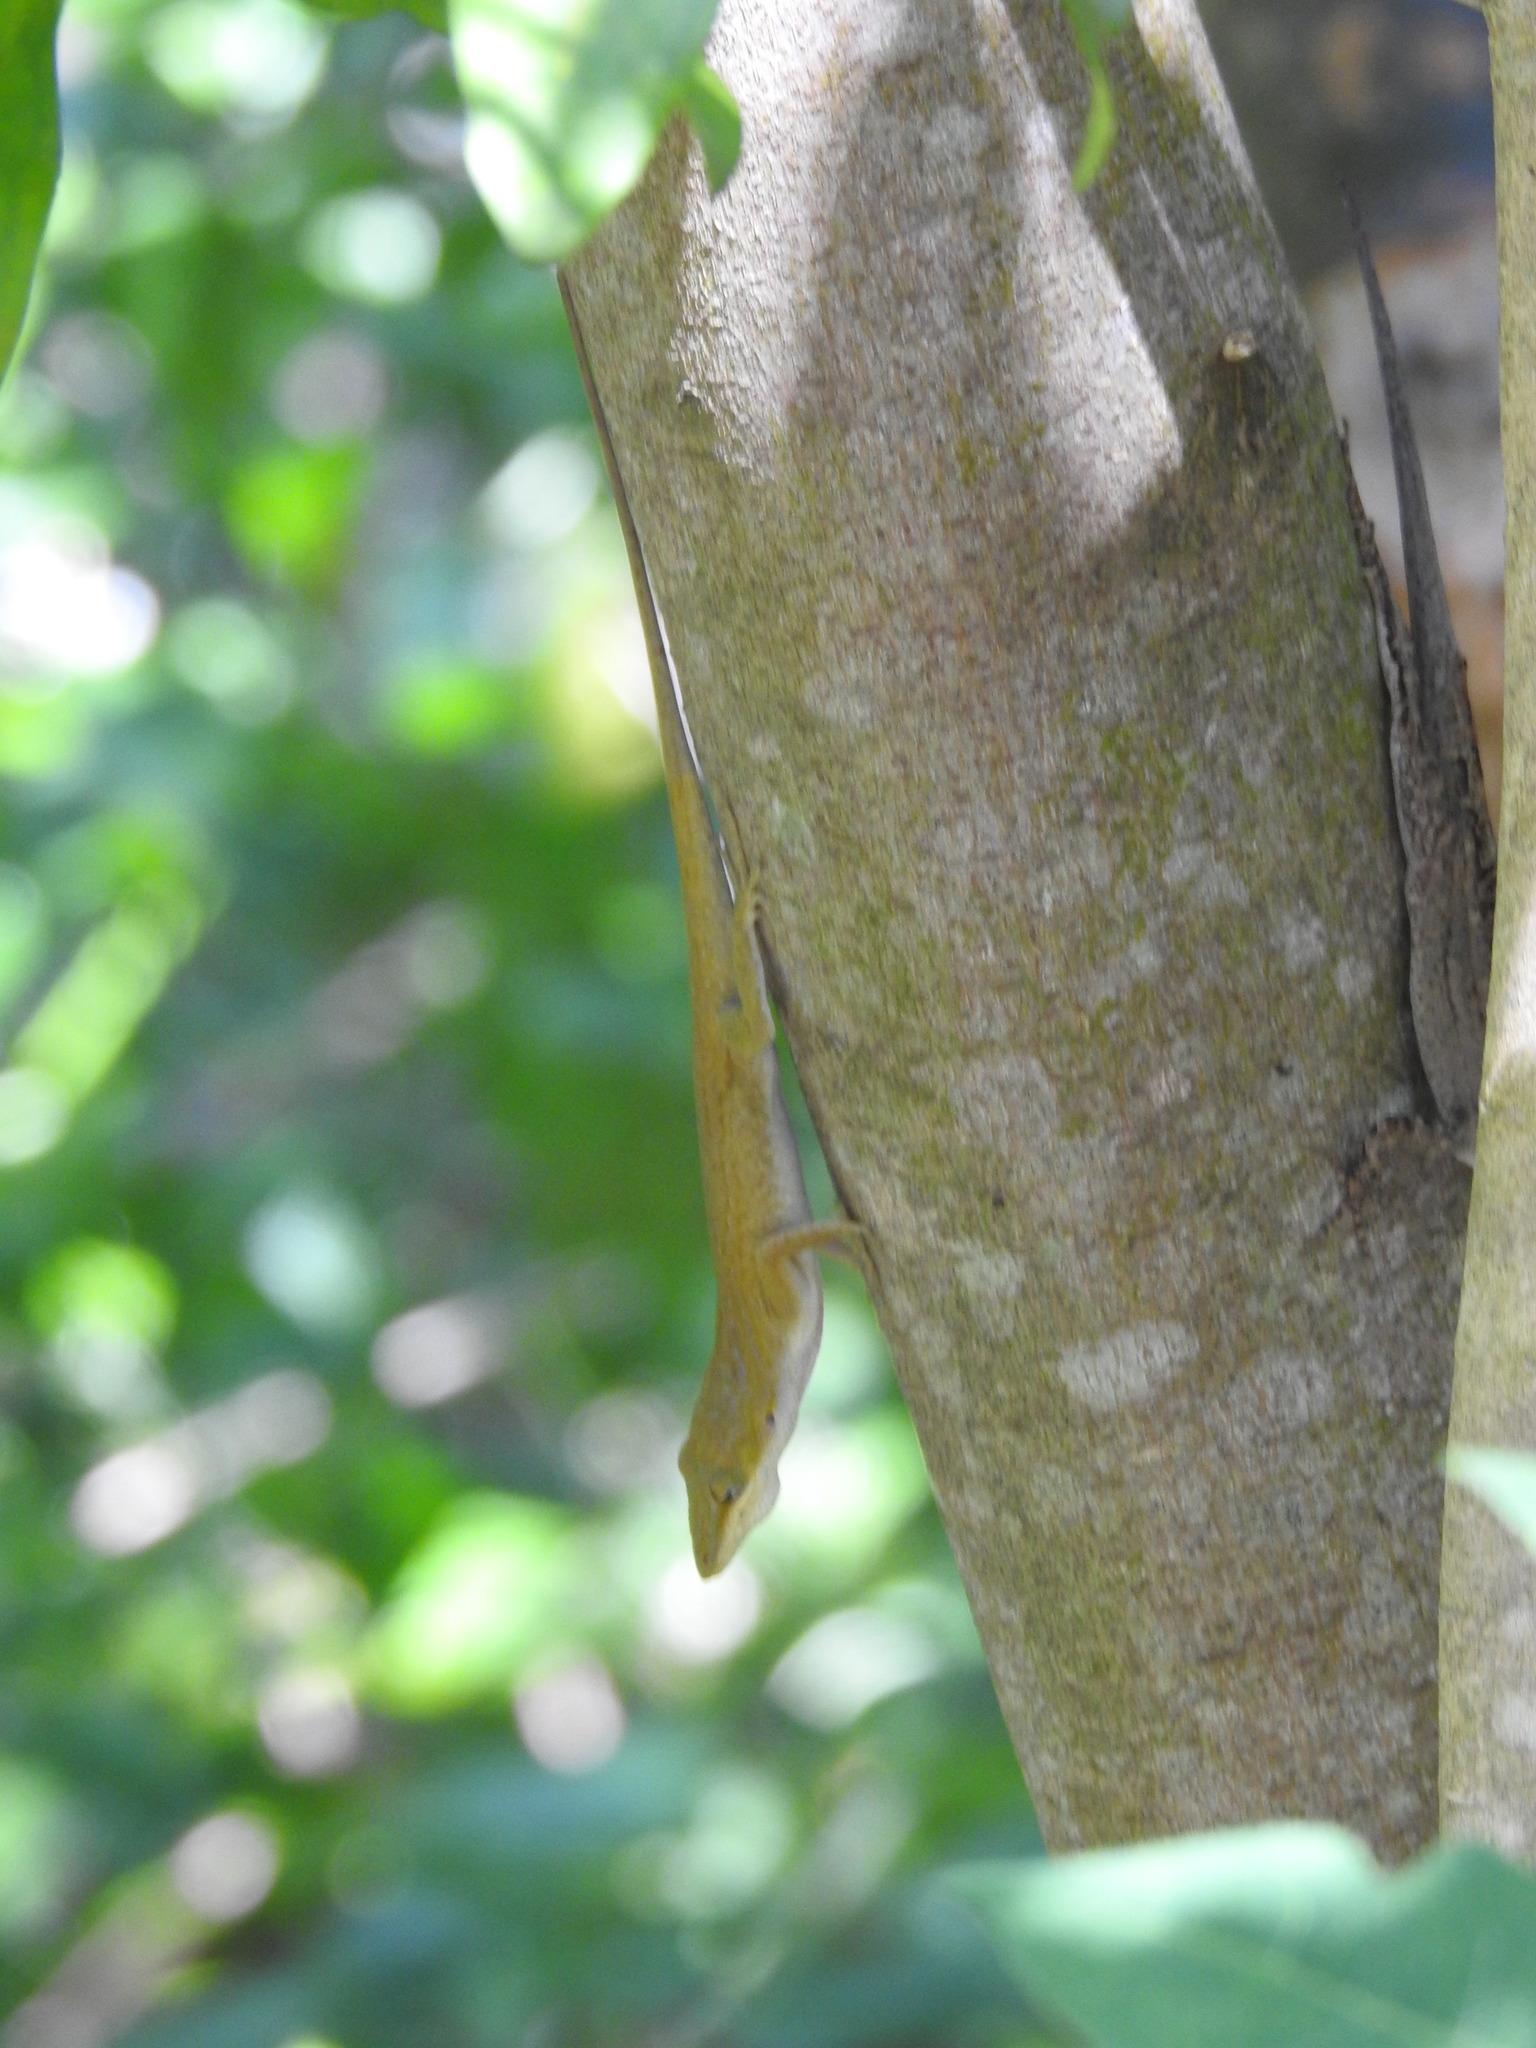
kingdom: Animalia
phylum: Chordata
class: Squamata
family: Dactyloidae
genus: Anolis
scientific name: Anolis carolinensis
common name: Green anole
